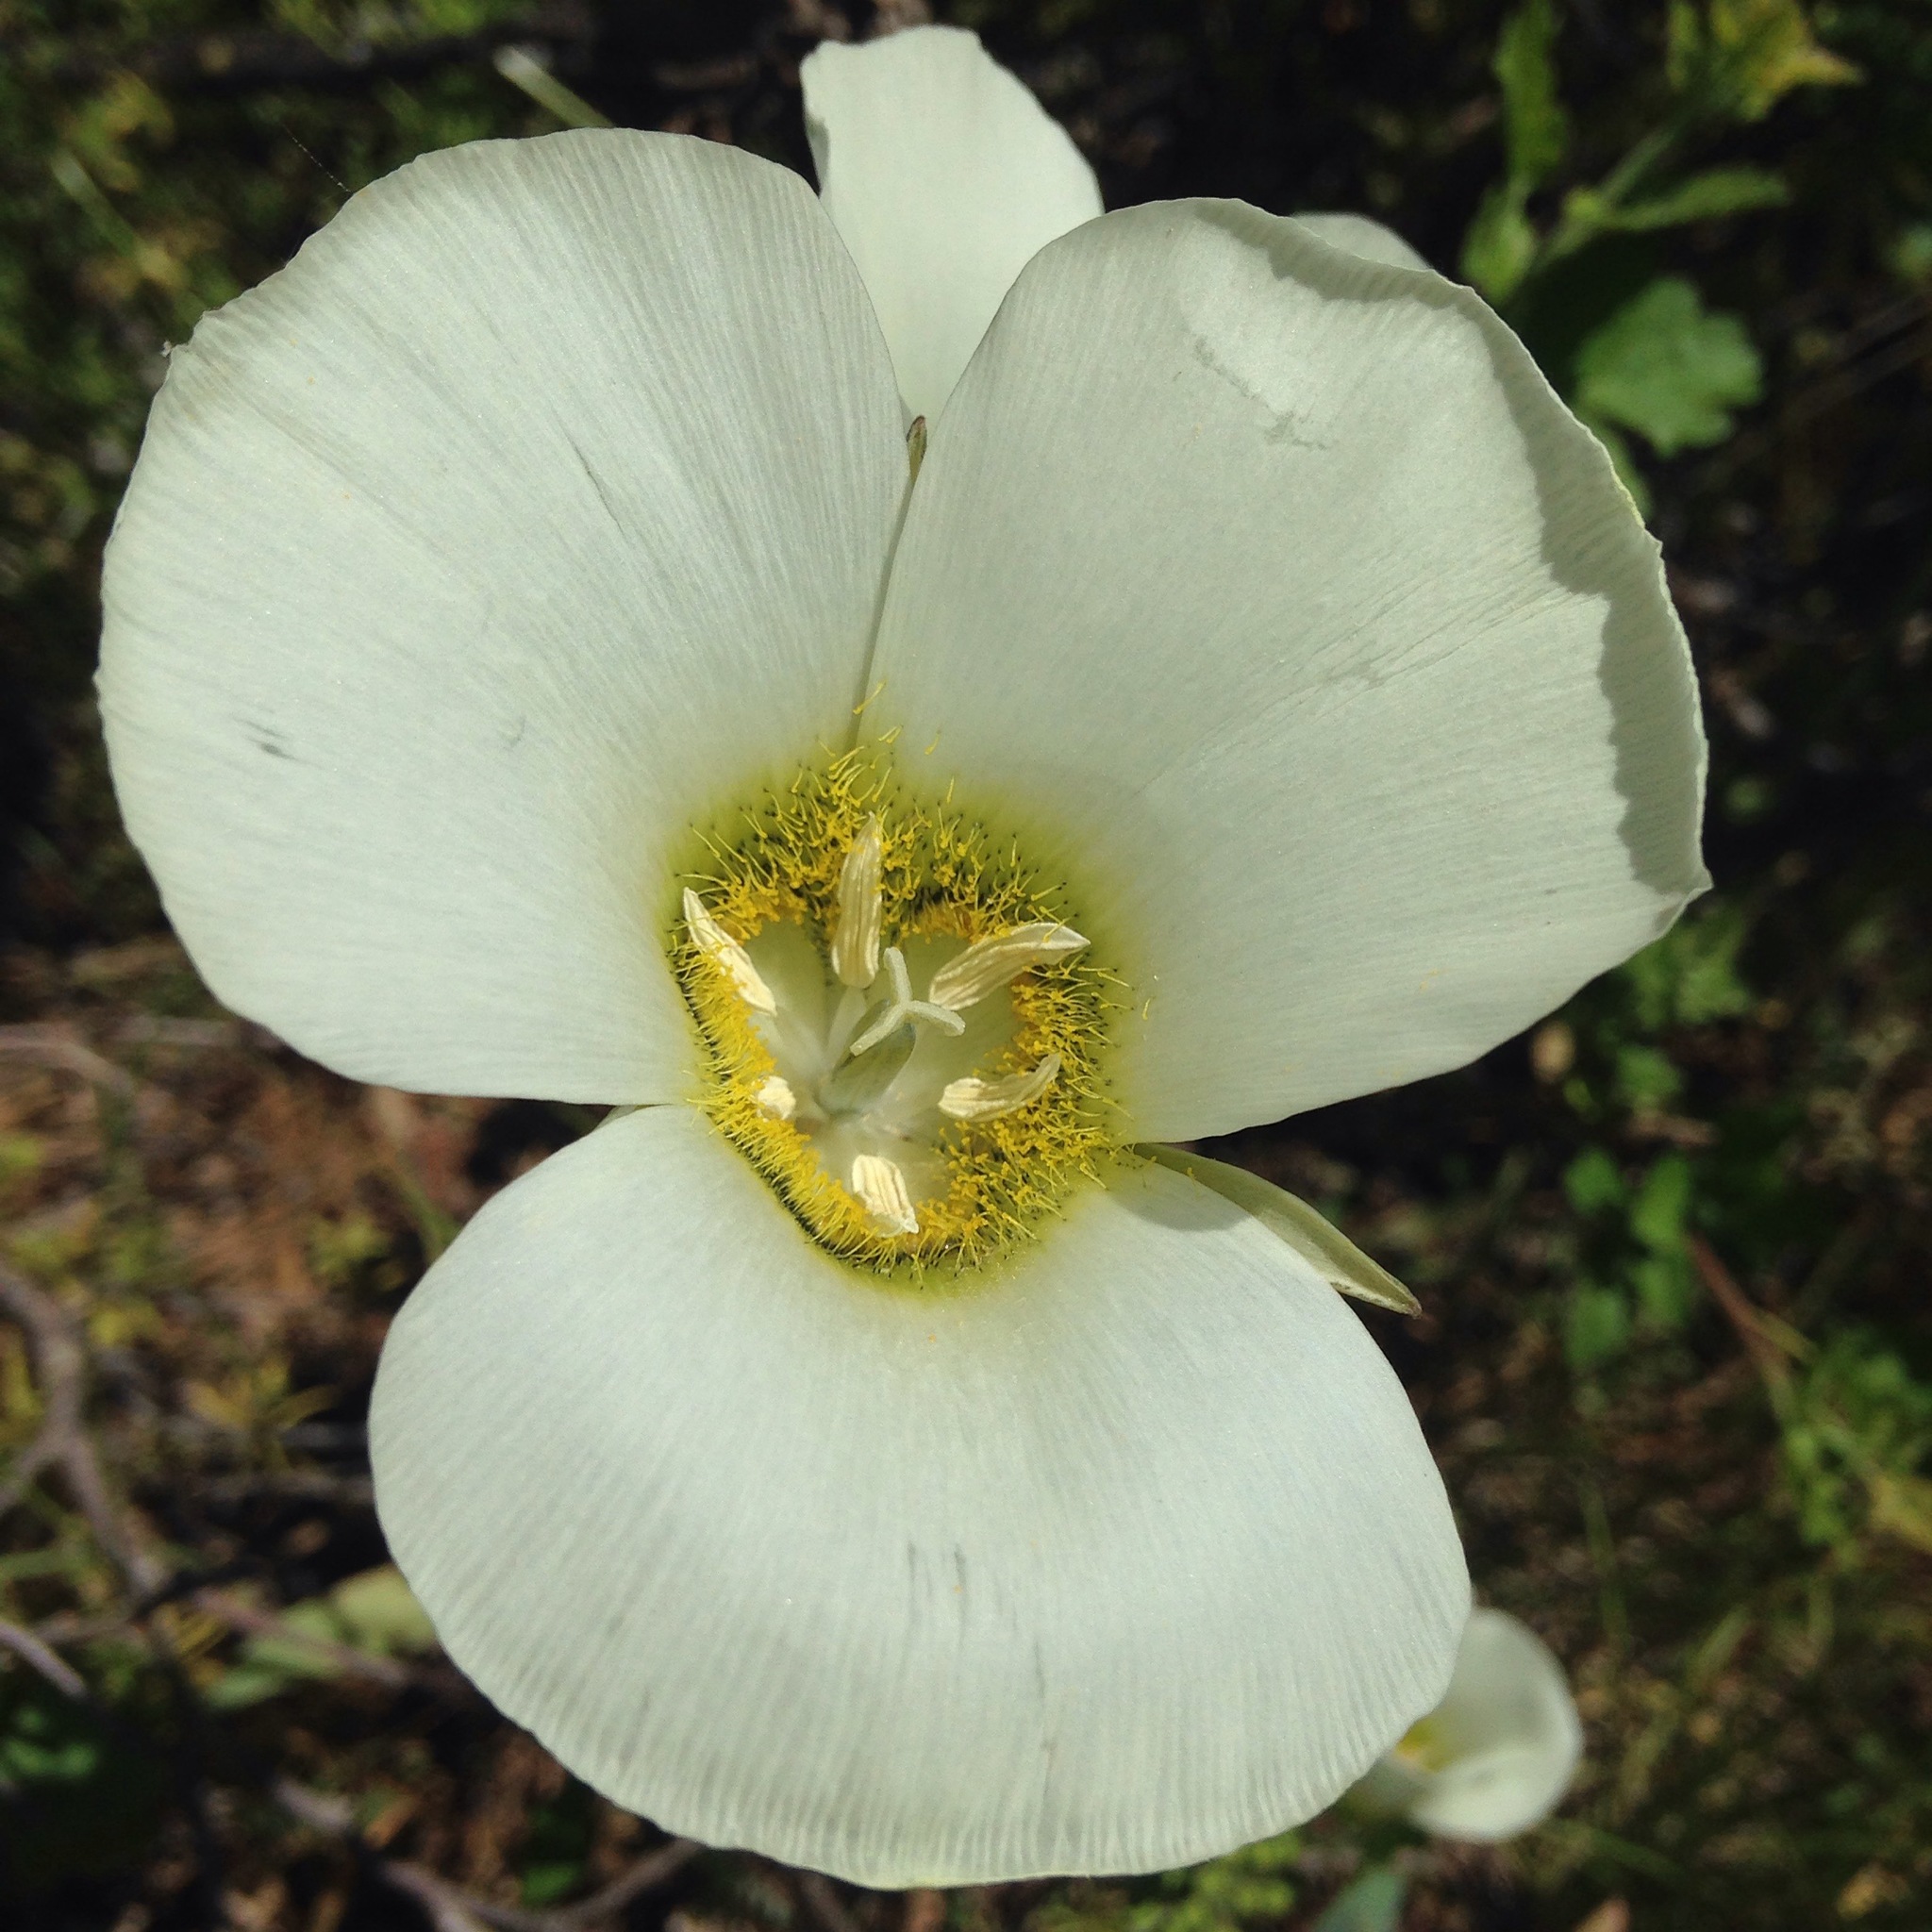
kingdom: Plantae
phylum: Tracheophyta
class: Liliopsida
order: Liliales
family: Liliaceae
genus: Calochortus
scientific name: Calochortus gunnisonii
